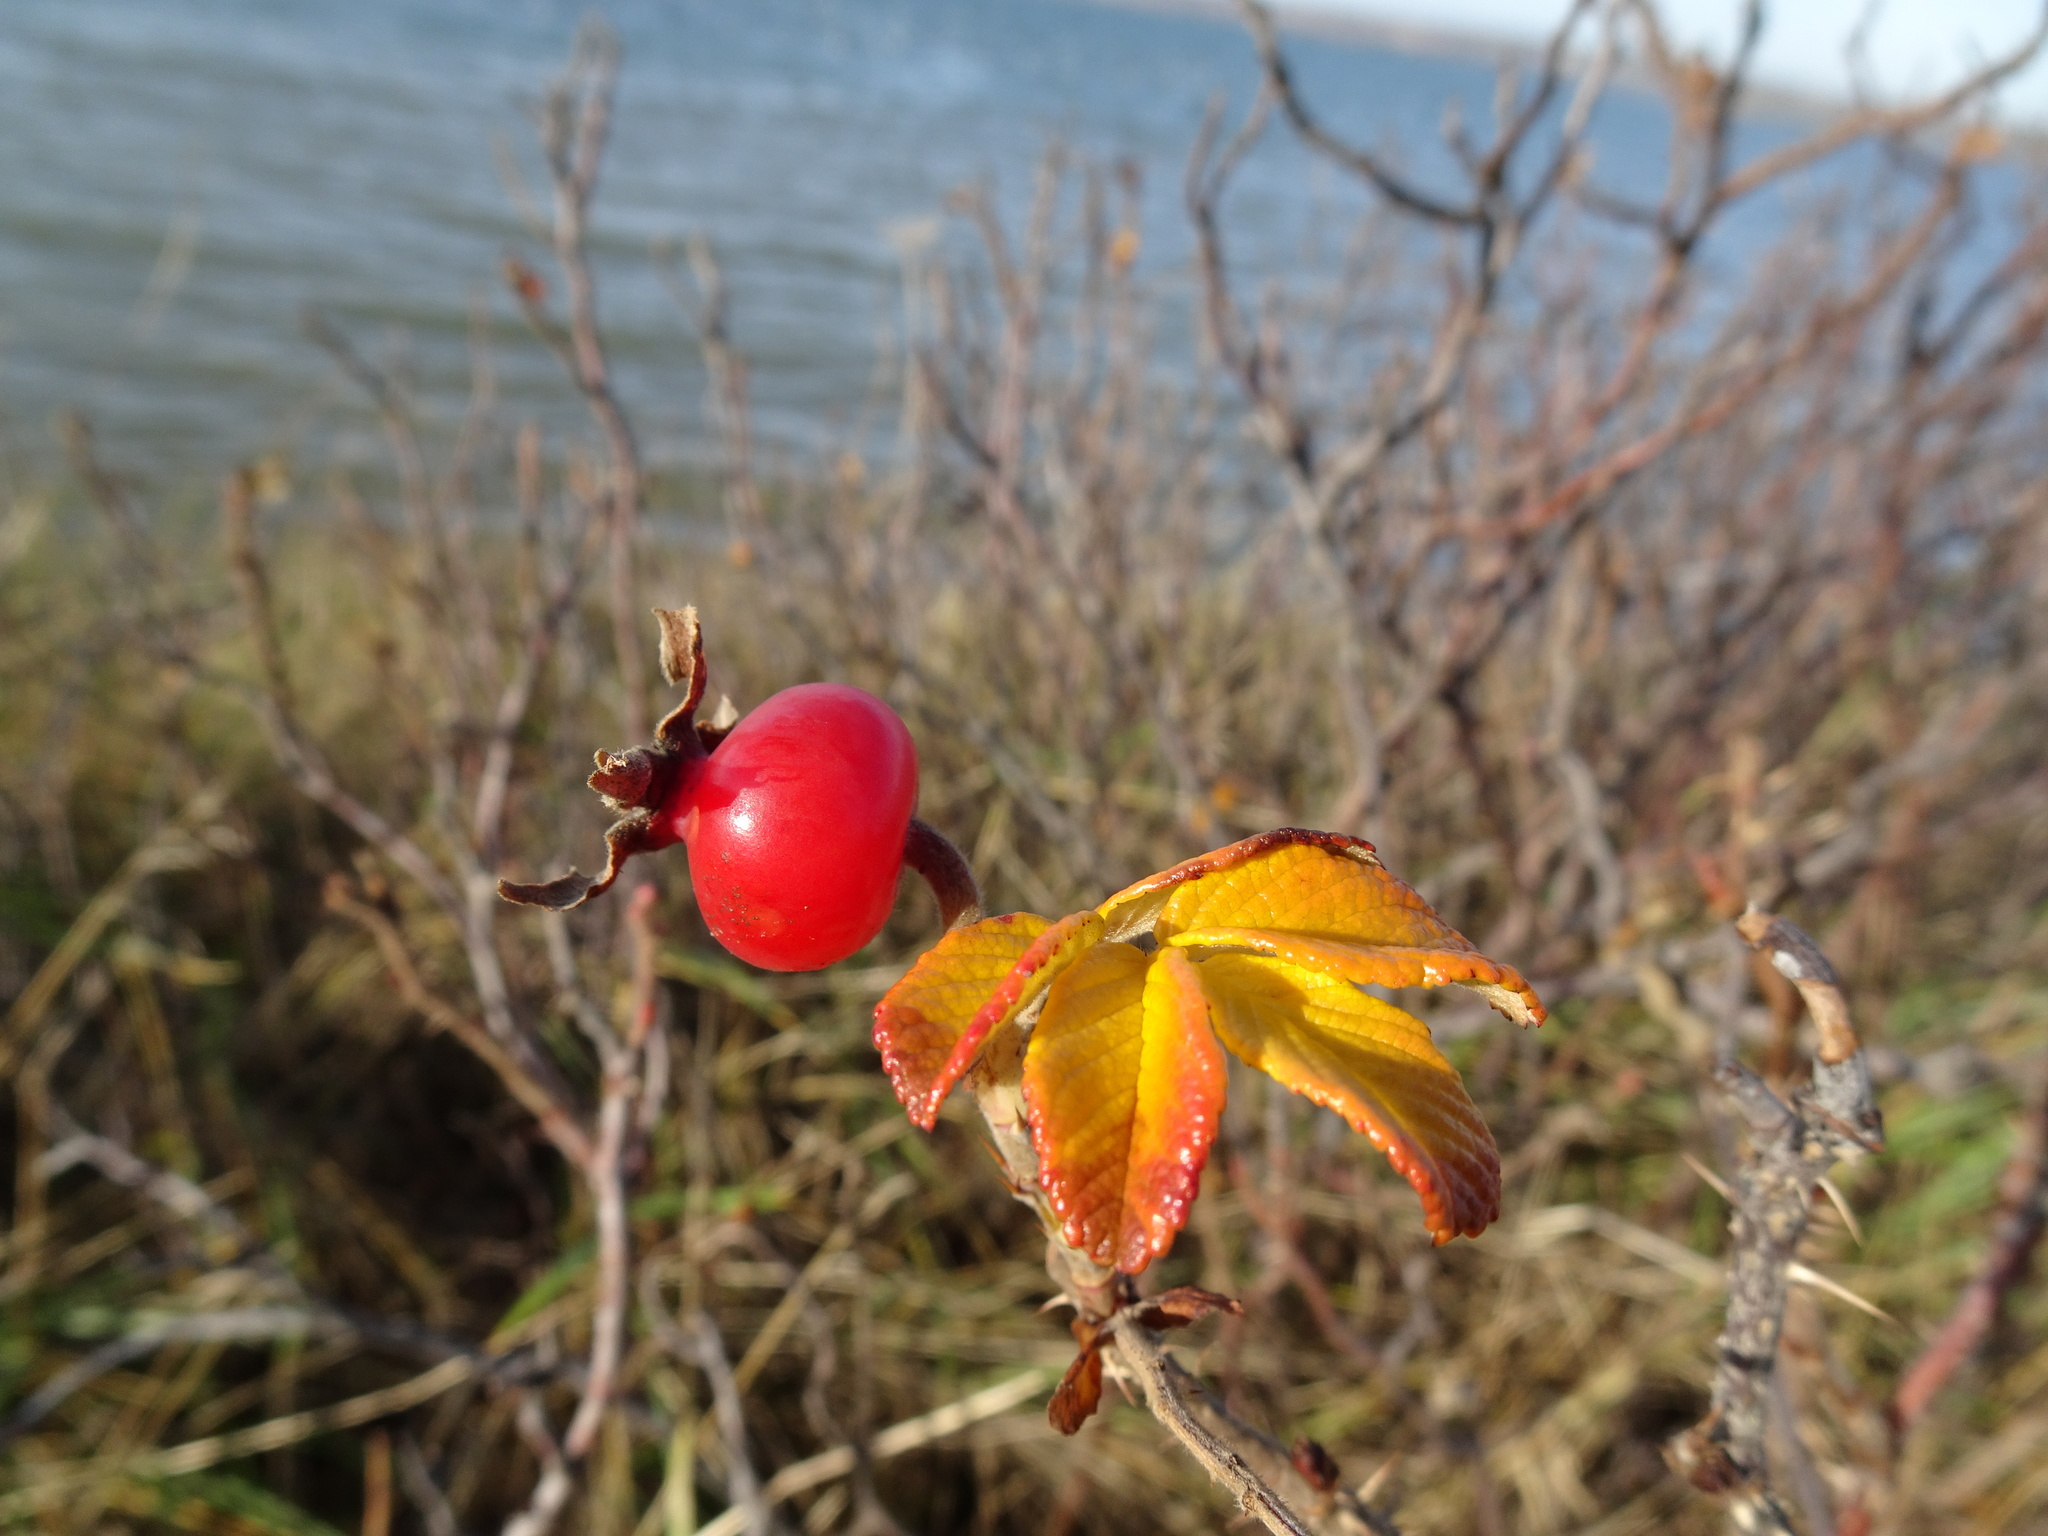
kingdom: Plantae
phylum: Tracheophyta
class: Magnoliopsida
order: Rosales
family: Rosaceae
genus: Rosa
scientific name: Rosa rugosa
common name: Japanese rose
